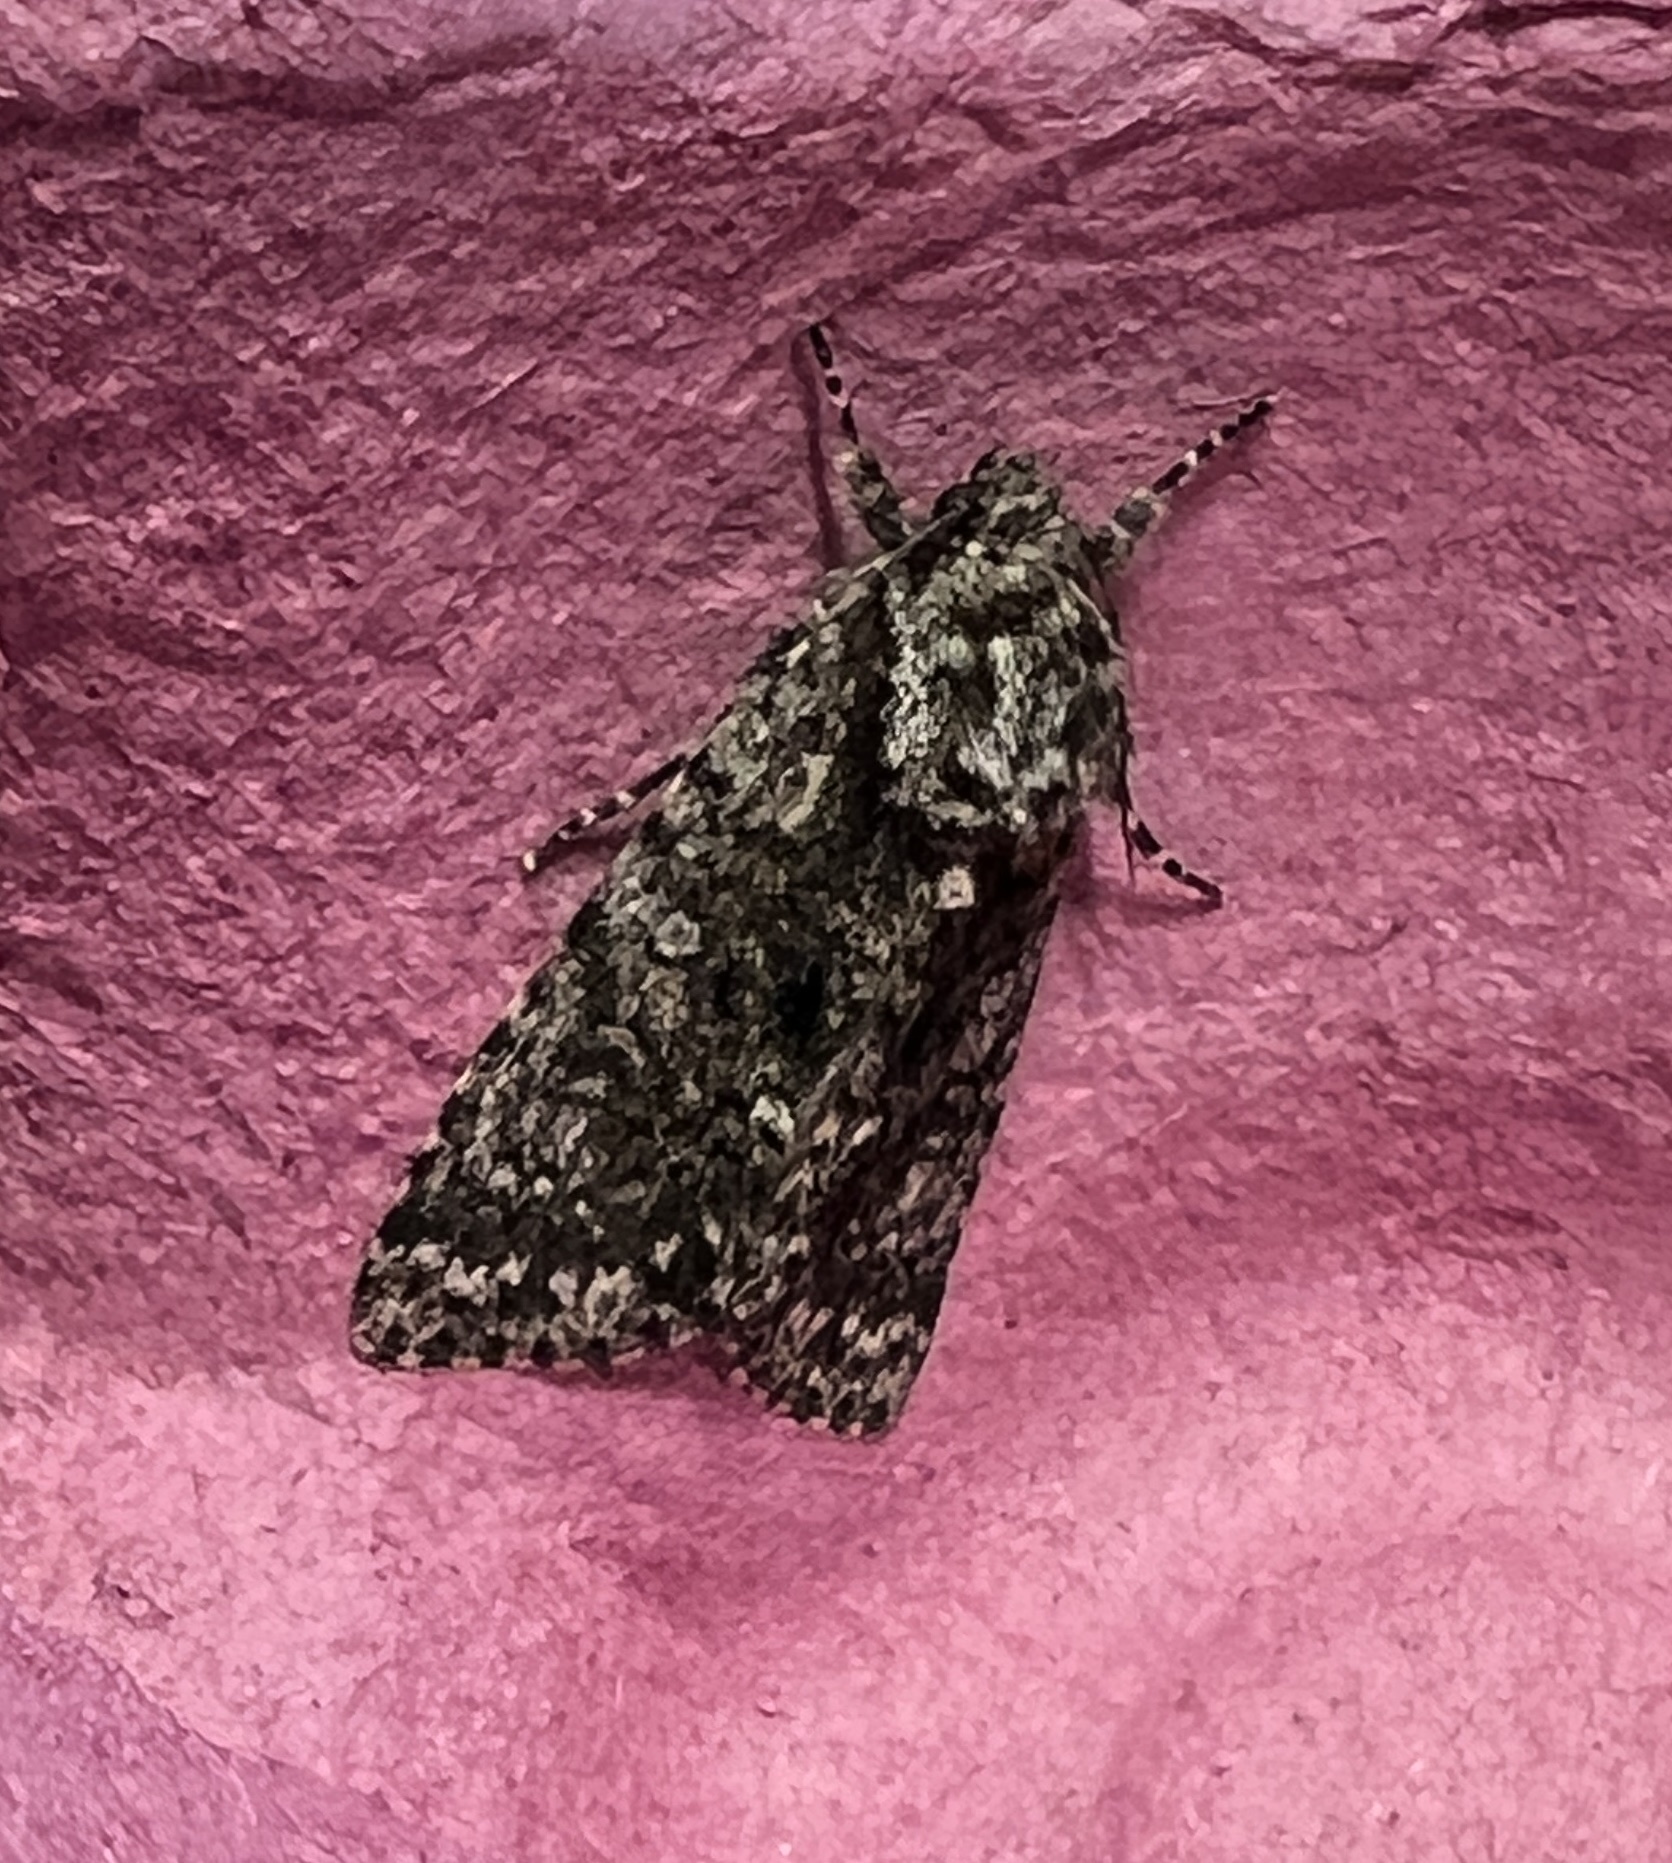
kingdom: Animalia
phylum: Arthropoda
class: Insecta
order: Lepidoptera
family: Noctuidae
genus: Acronicta
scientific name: Acronicta rumicis
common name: Knot grass
